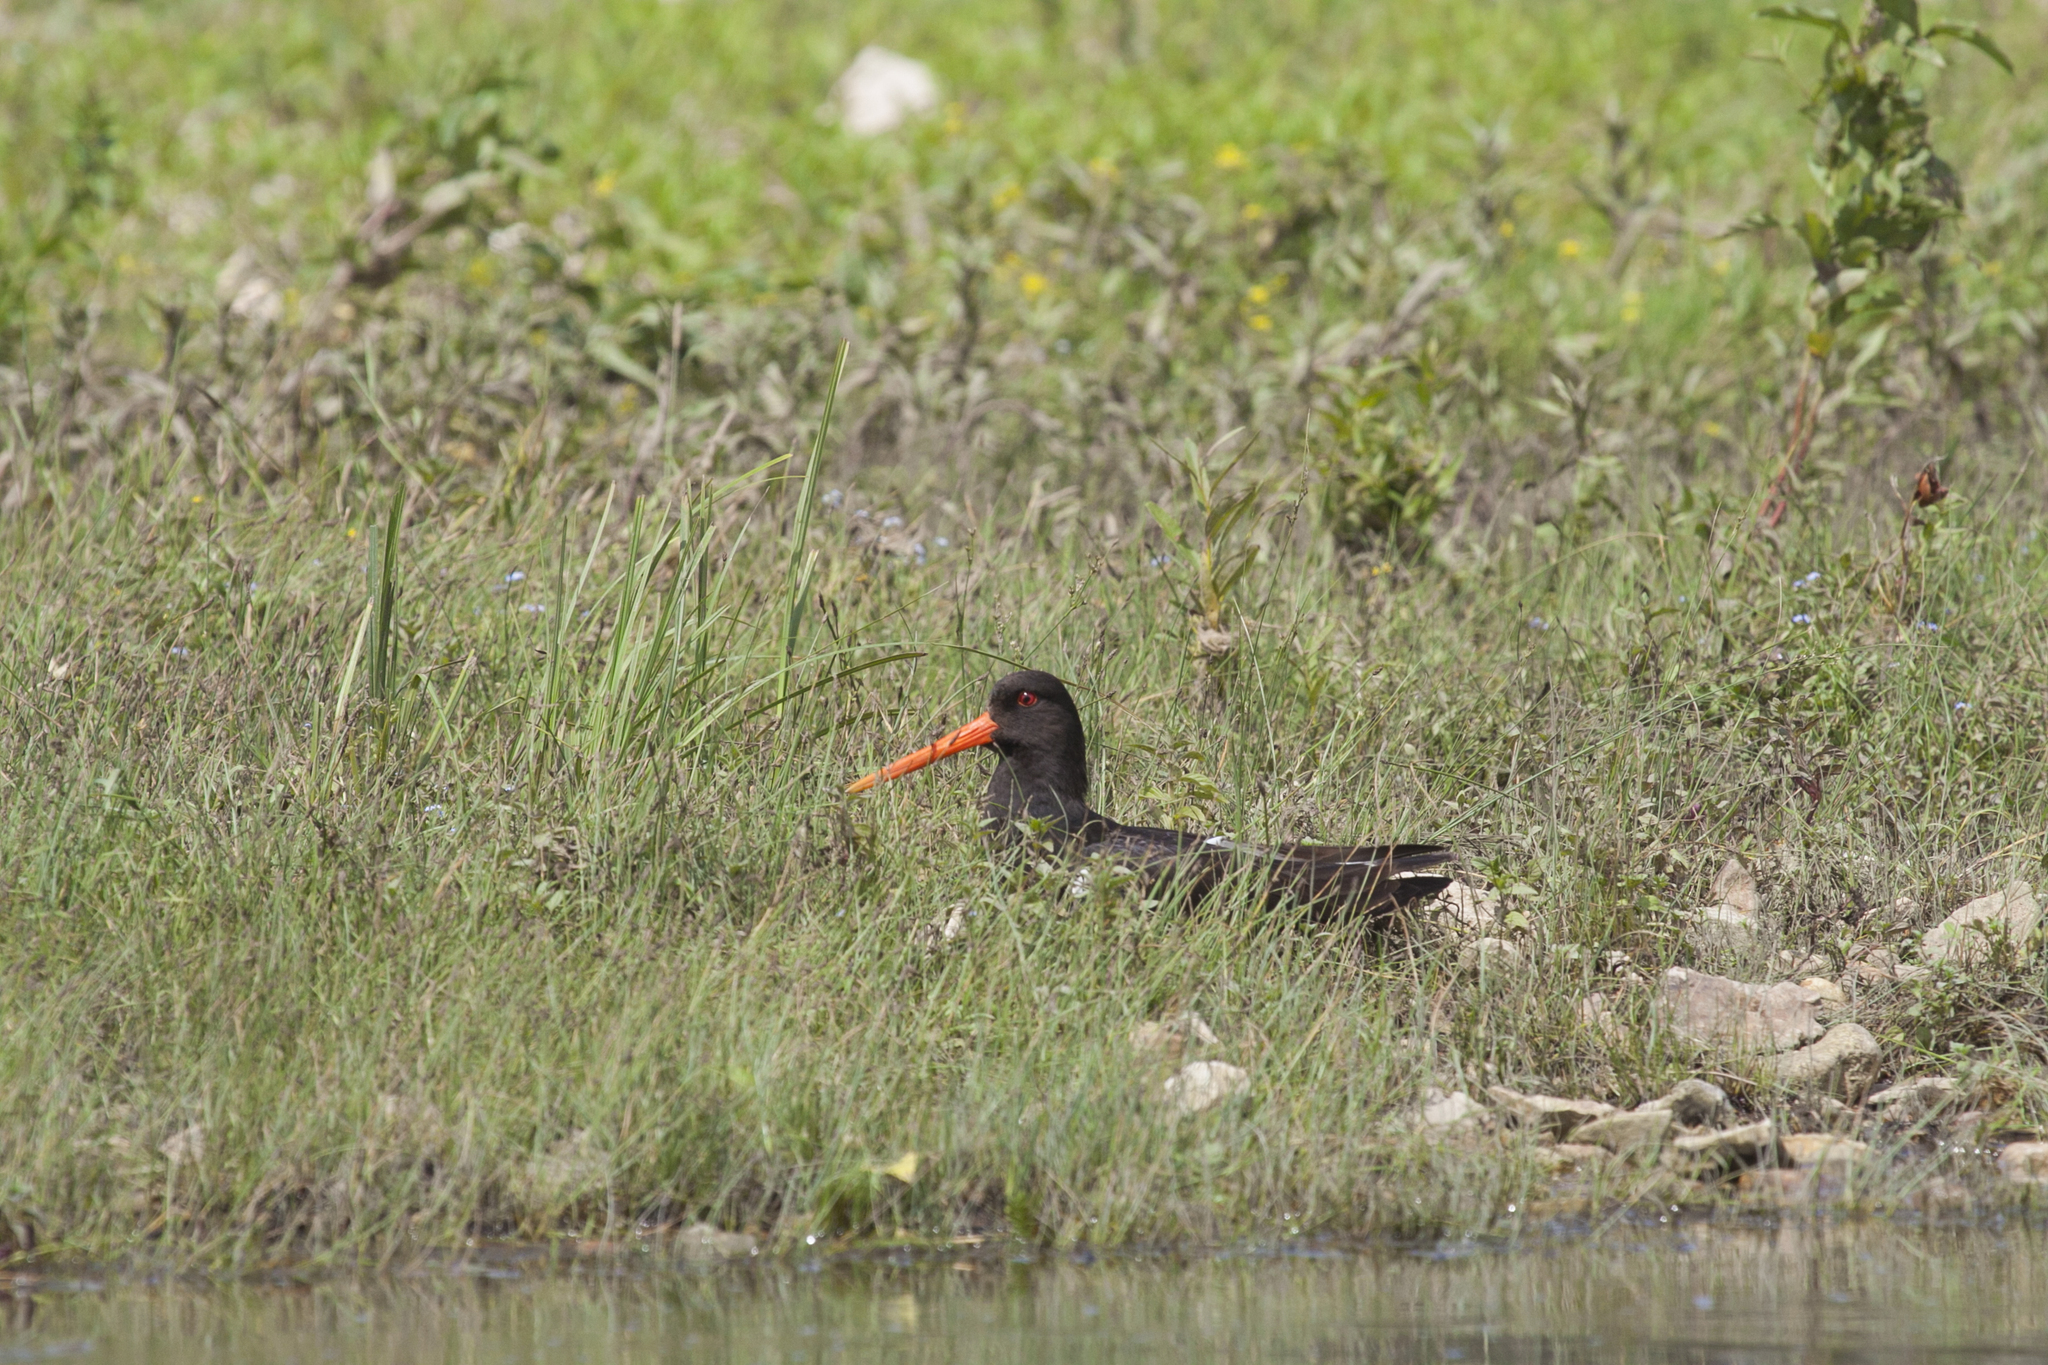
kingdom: Animalia
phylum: Chordata
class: Aves
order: Charadriiformes
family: Haematopodidae
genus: Haematopus
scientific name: Haematopus ostralegus
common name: Eurasian oystercatcher
